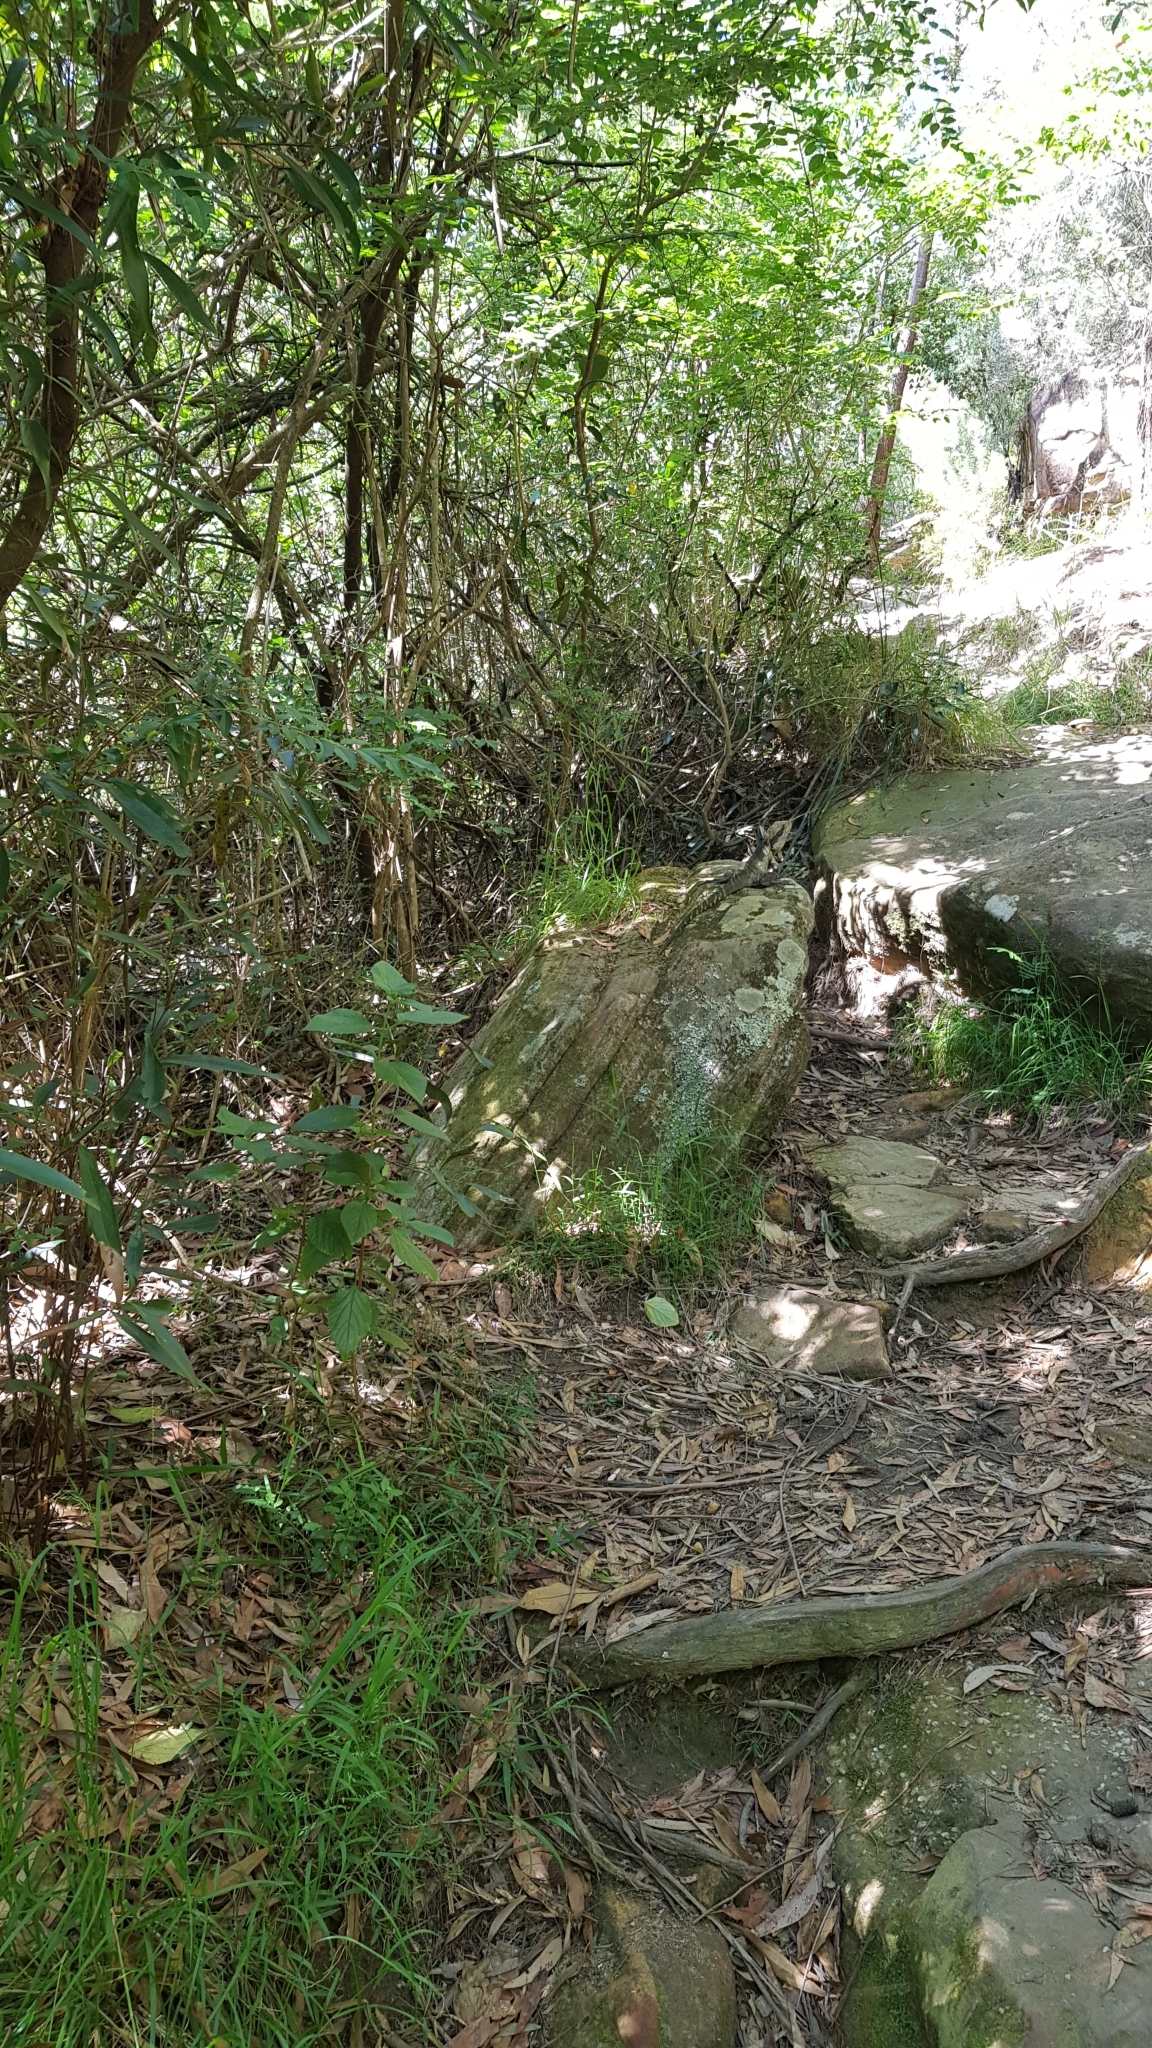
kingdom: Animalia
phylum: Chordata
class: Squamata
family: Agamidae
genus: Intellagama
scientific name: Intellagama lesueurii
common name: Eastern water dragon
